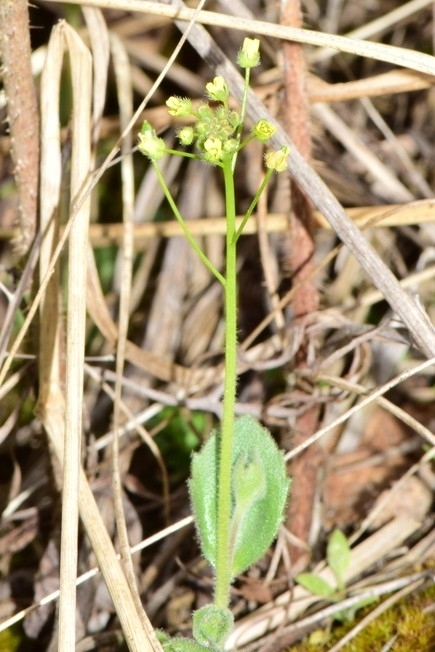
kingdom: Plantae
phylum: Tracheophyta
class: Magnoliopsida
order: Brassicales
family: Brassicaceae
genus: Draba
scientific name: Draba nemorosa
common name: Wood whitlow-grass
